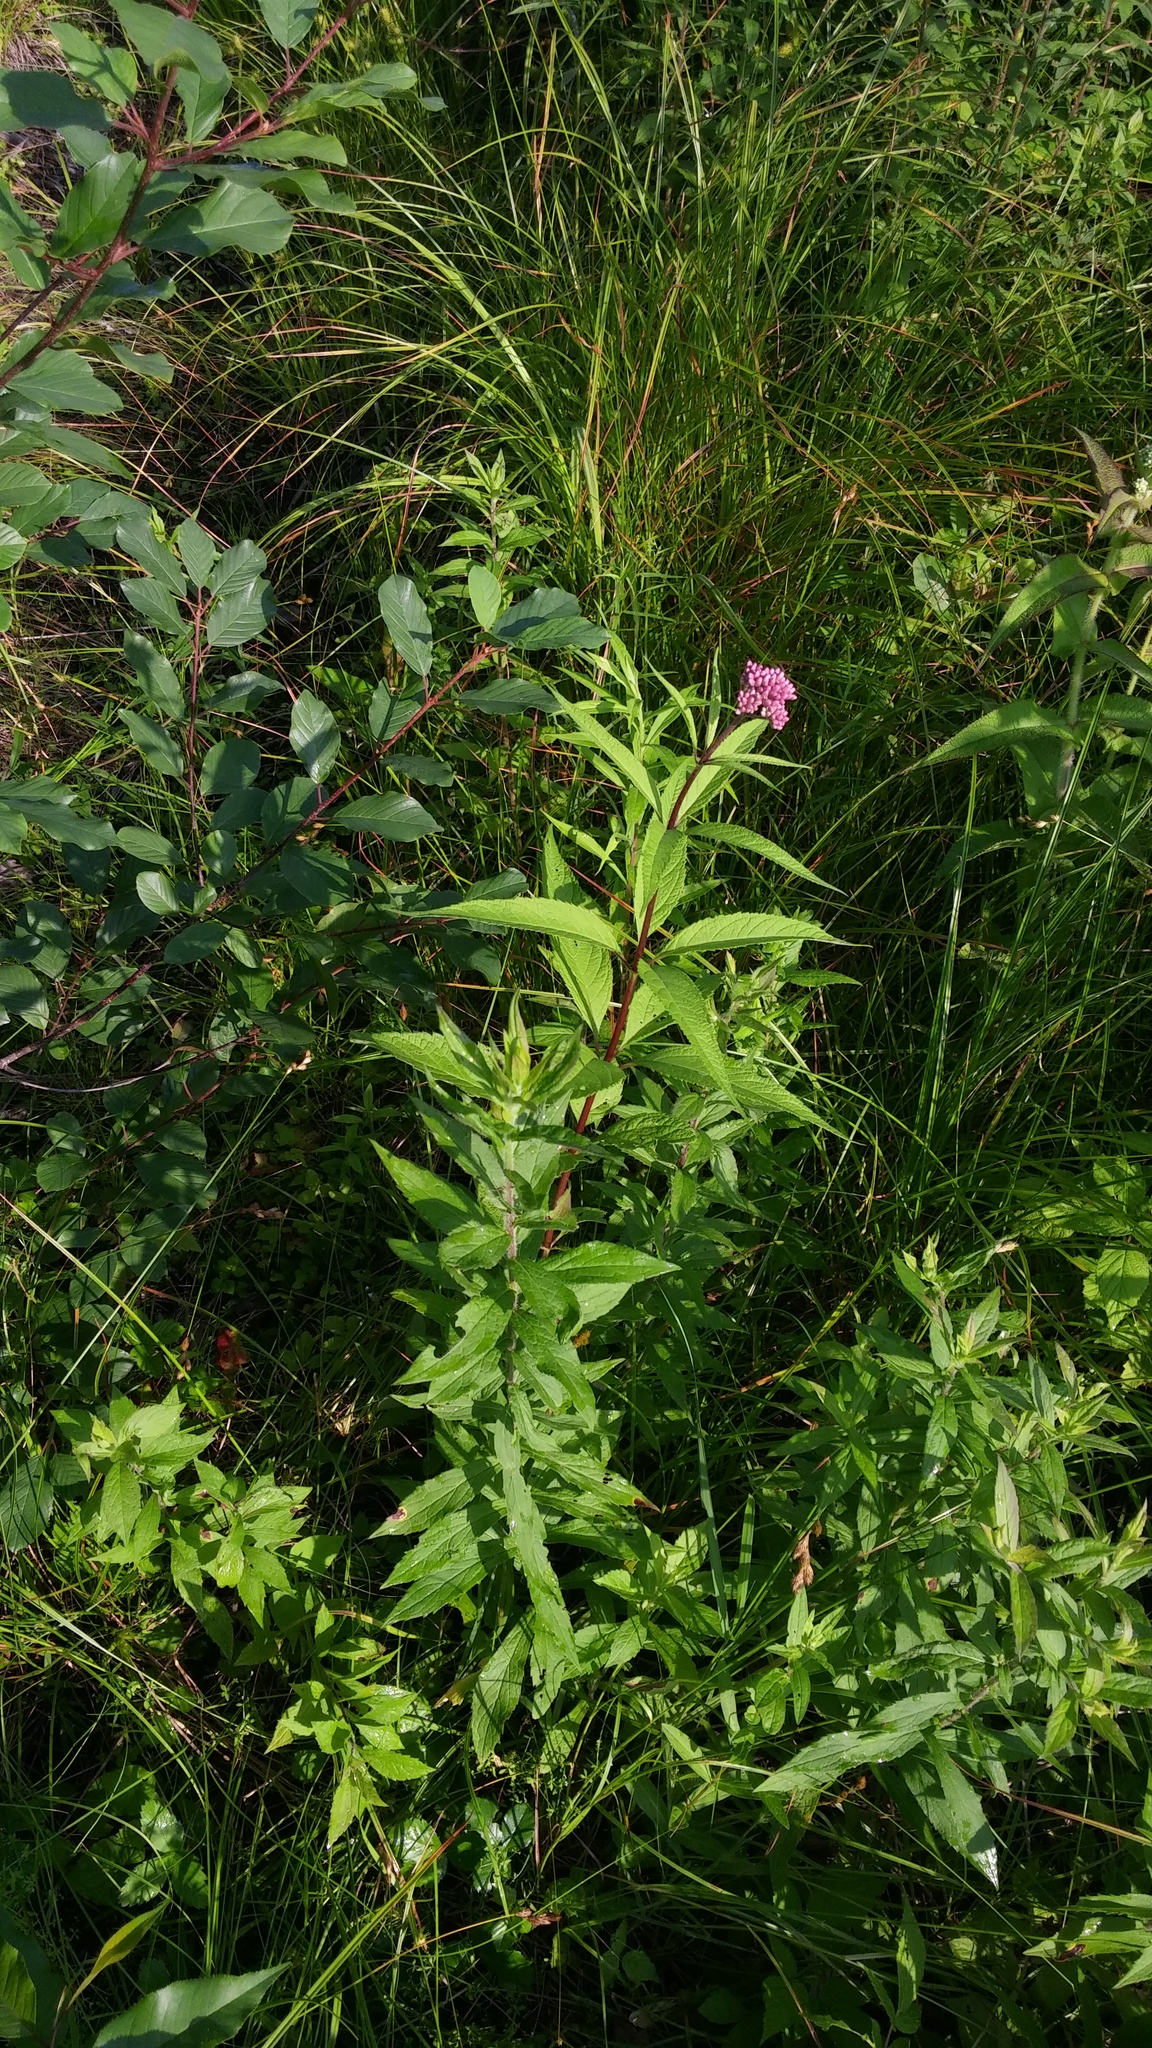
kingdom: Plantae
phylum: Tracheophyta
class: Magnoliopsida
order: Asterales
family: Asteraceae
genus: Eutrochium
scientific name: Eutrochium maculatum
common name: Spotted joe pye weed
